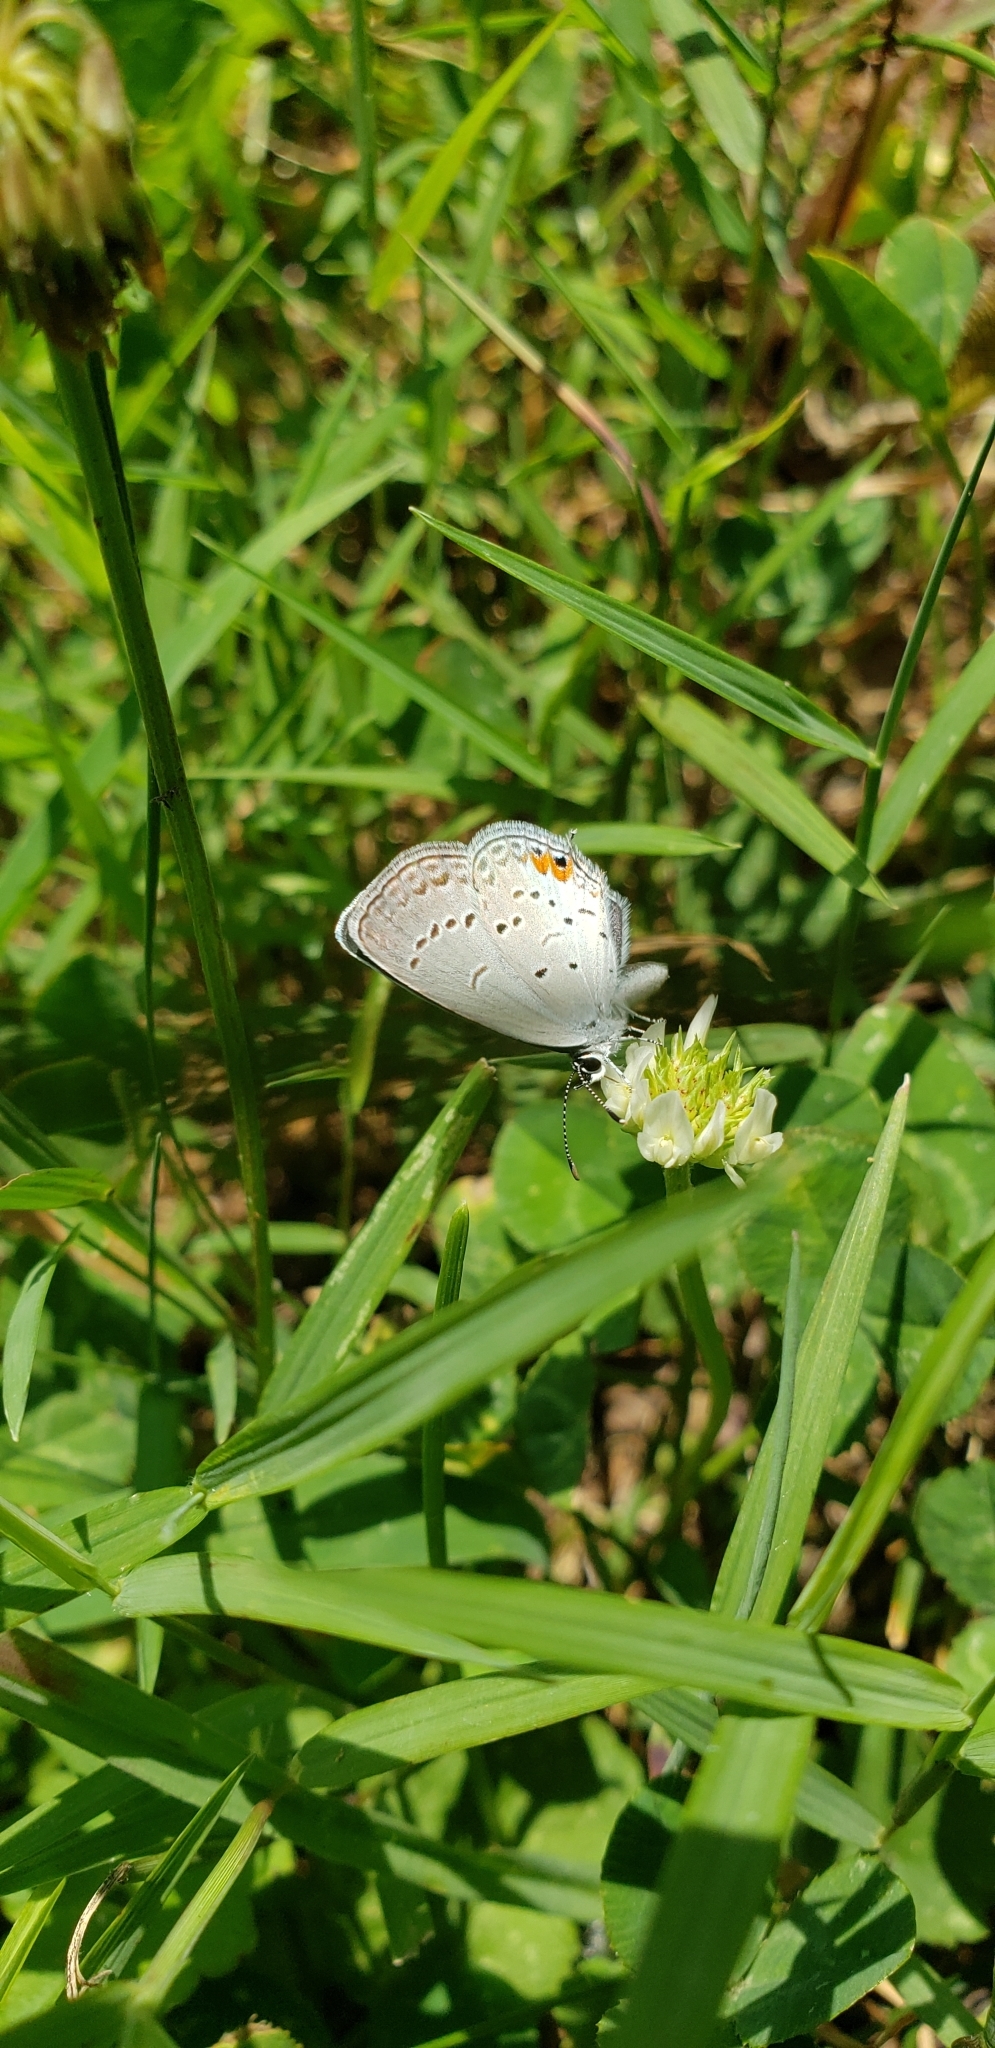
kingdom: Animalia
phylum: Arthropoda
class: Insecta
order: Lepidoptera
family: Lycaenidae
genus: Elkalyce
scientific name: Elkalyce comyntas
